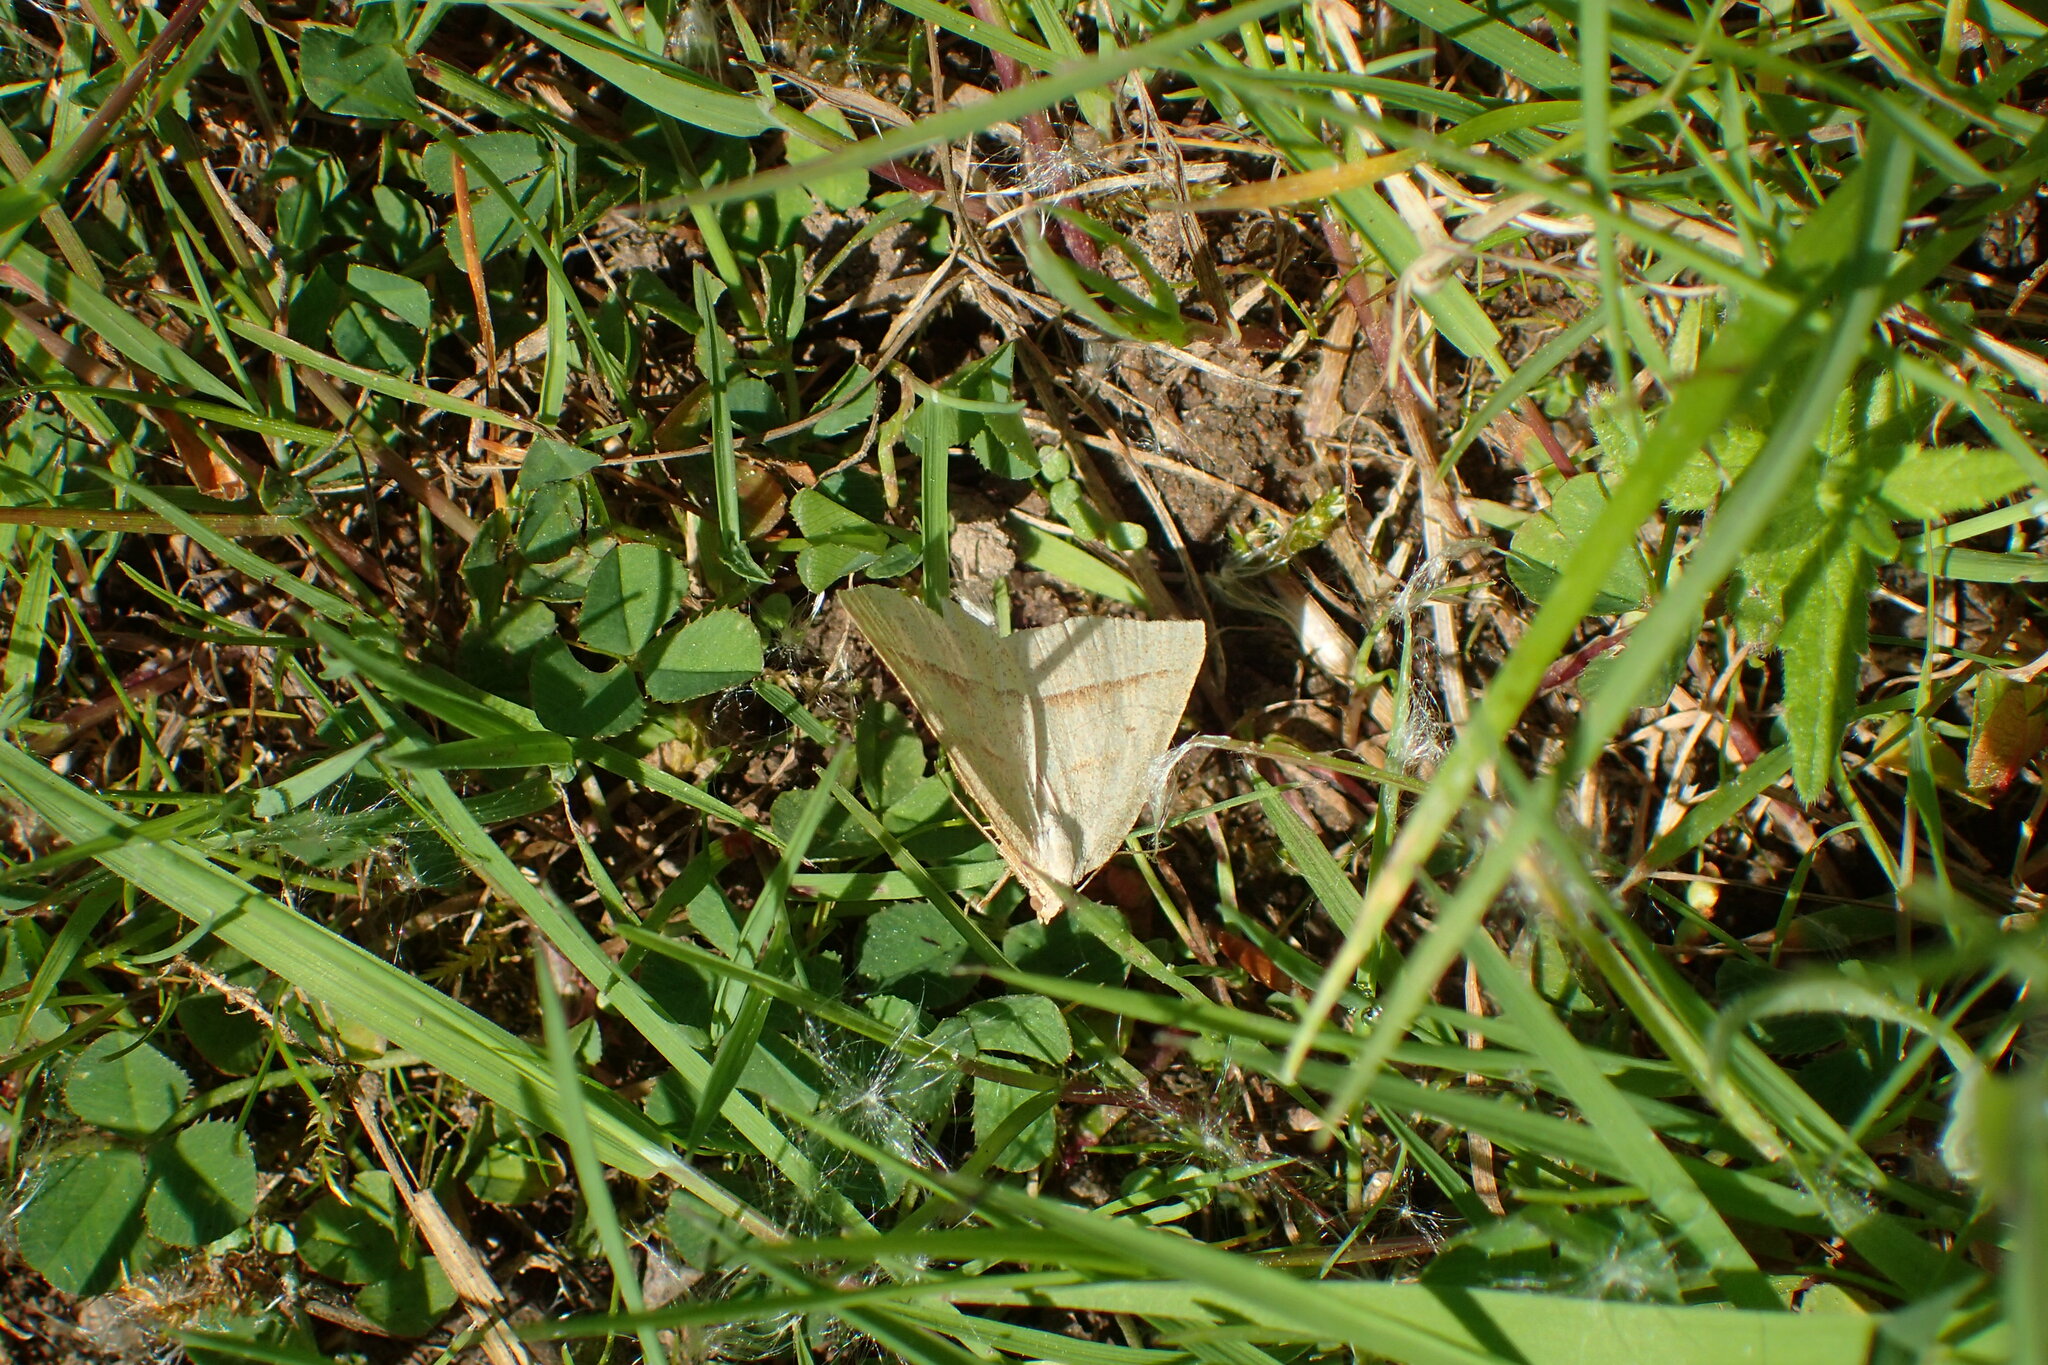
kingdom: Animalia
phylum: Arthropoda
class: Insecta
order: Lepidoptera
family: Pterophoridae
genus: Pterophorus
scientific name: Pterophorus Petrophora chlorosata
